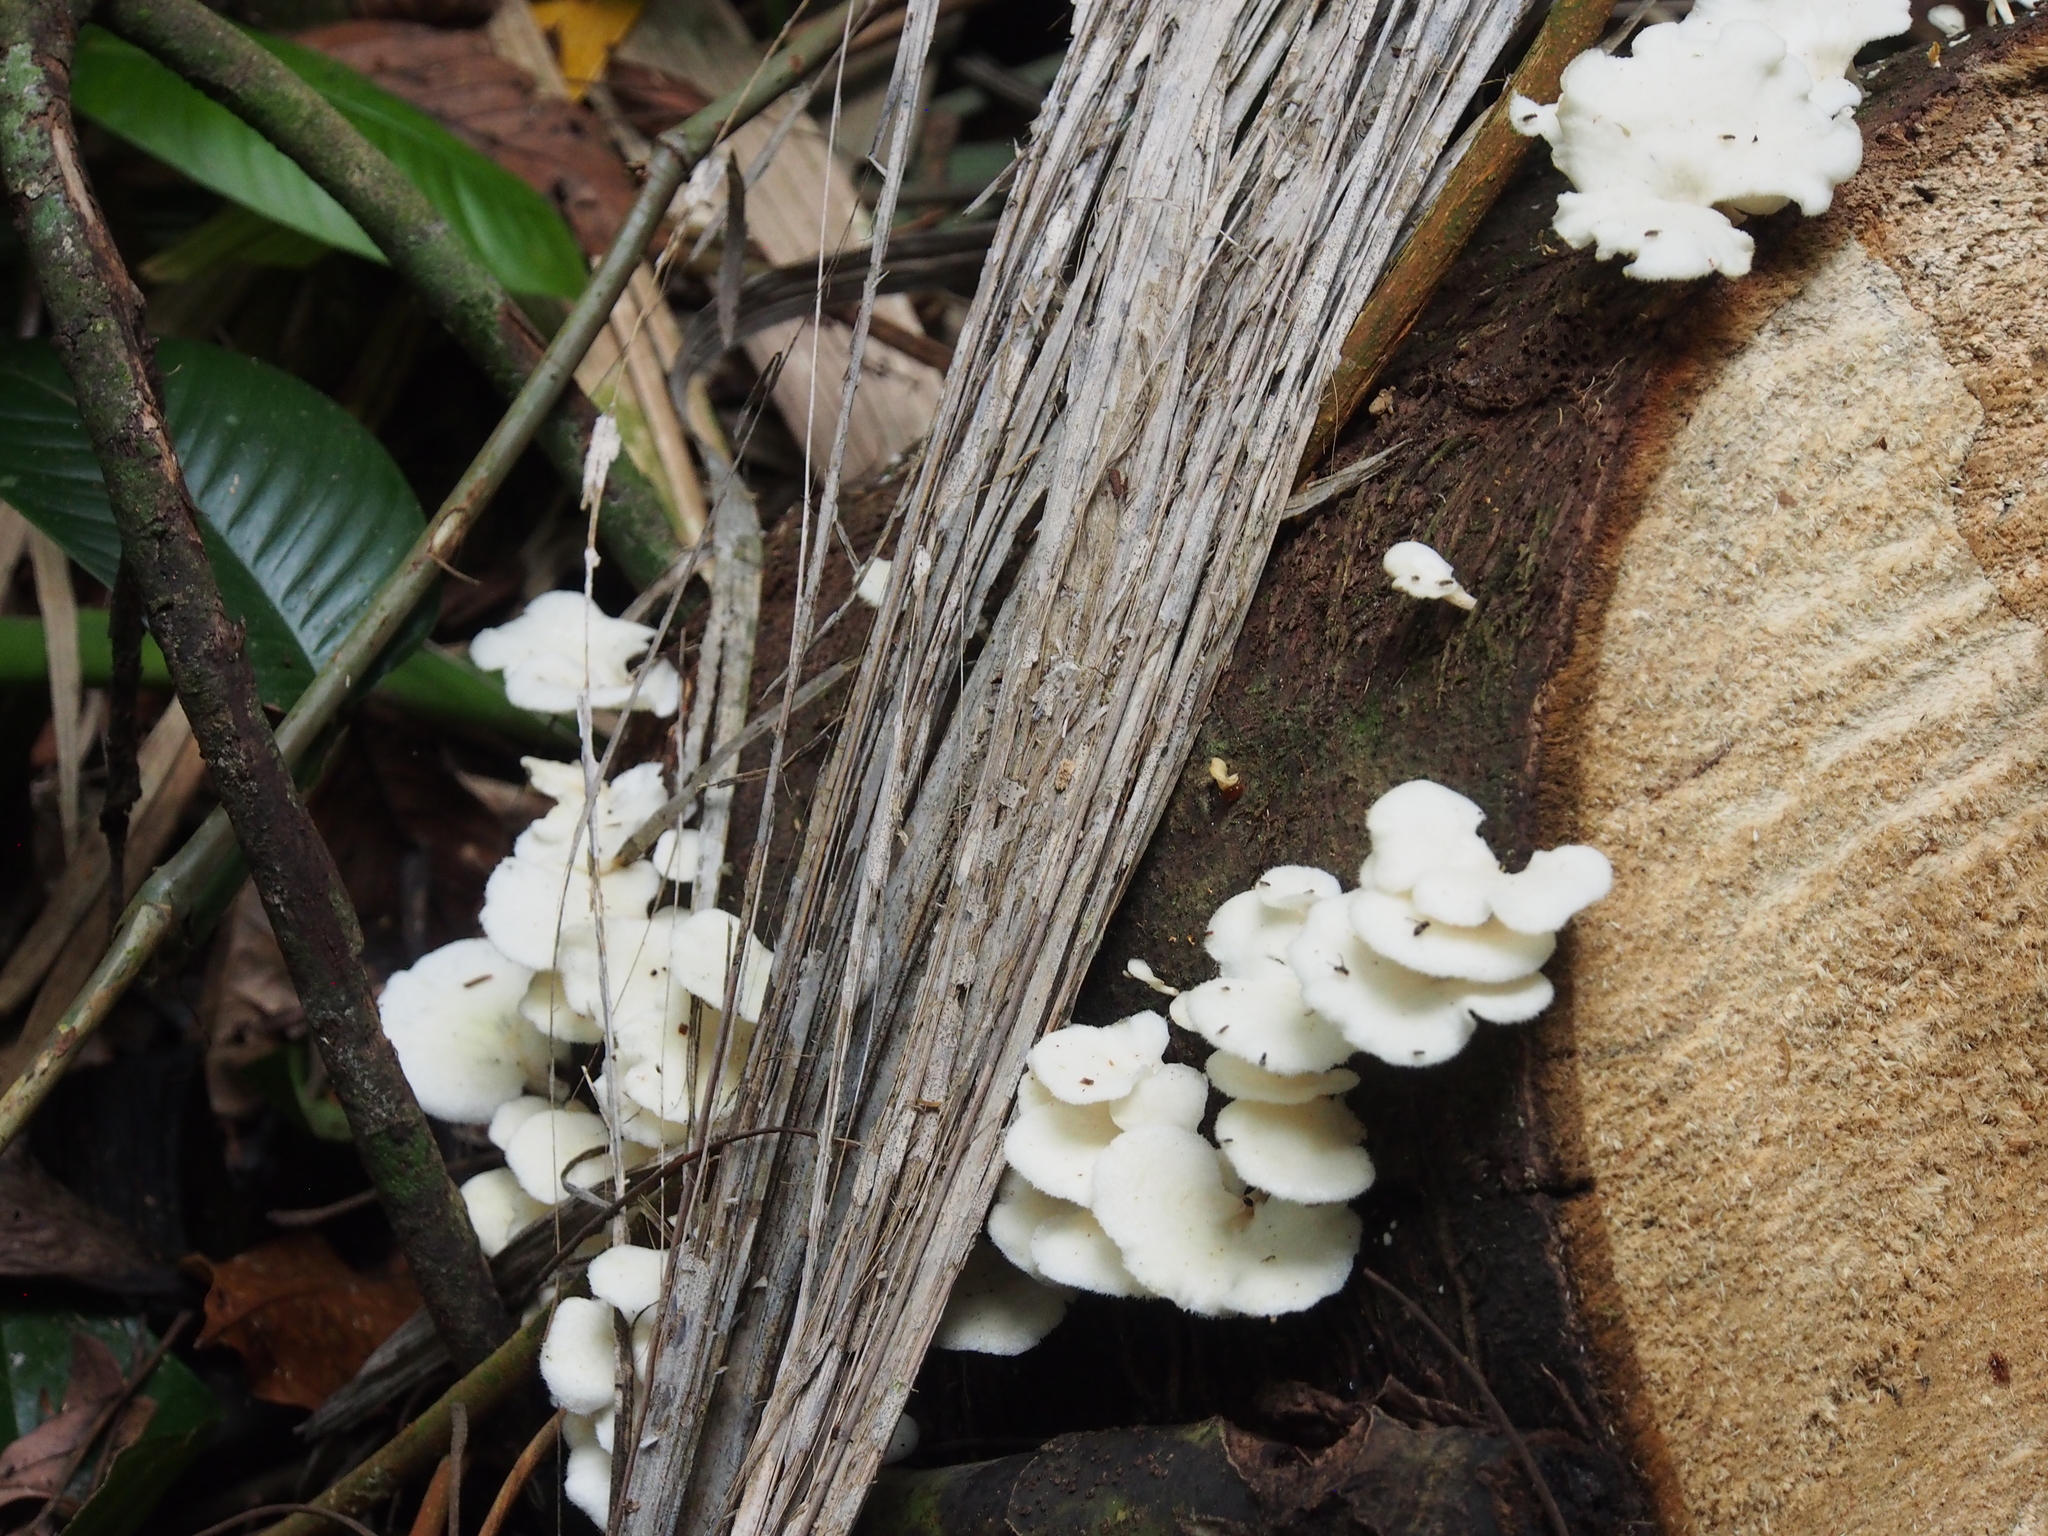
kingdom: Fungi
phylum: Basidiomycota
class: Agaricomycetes
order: Polyporales
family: Polyporaceae
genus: Favolus
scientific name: Favolus tenuiculus
